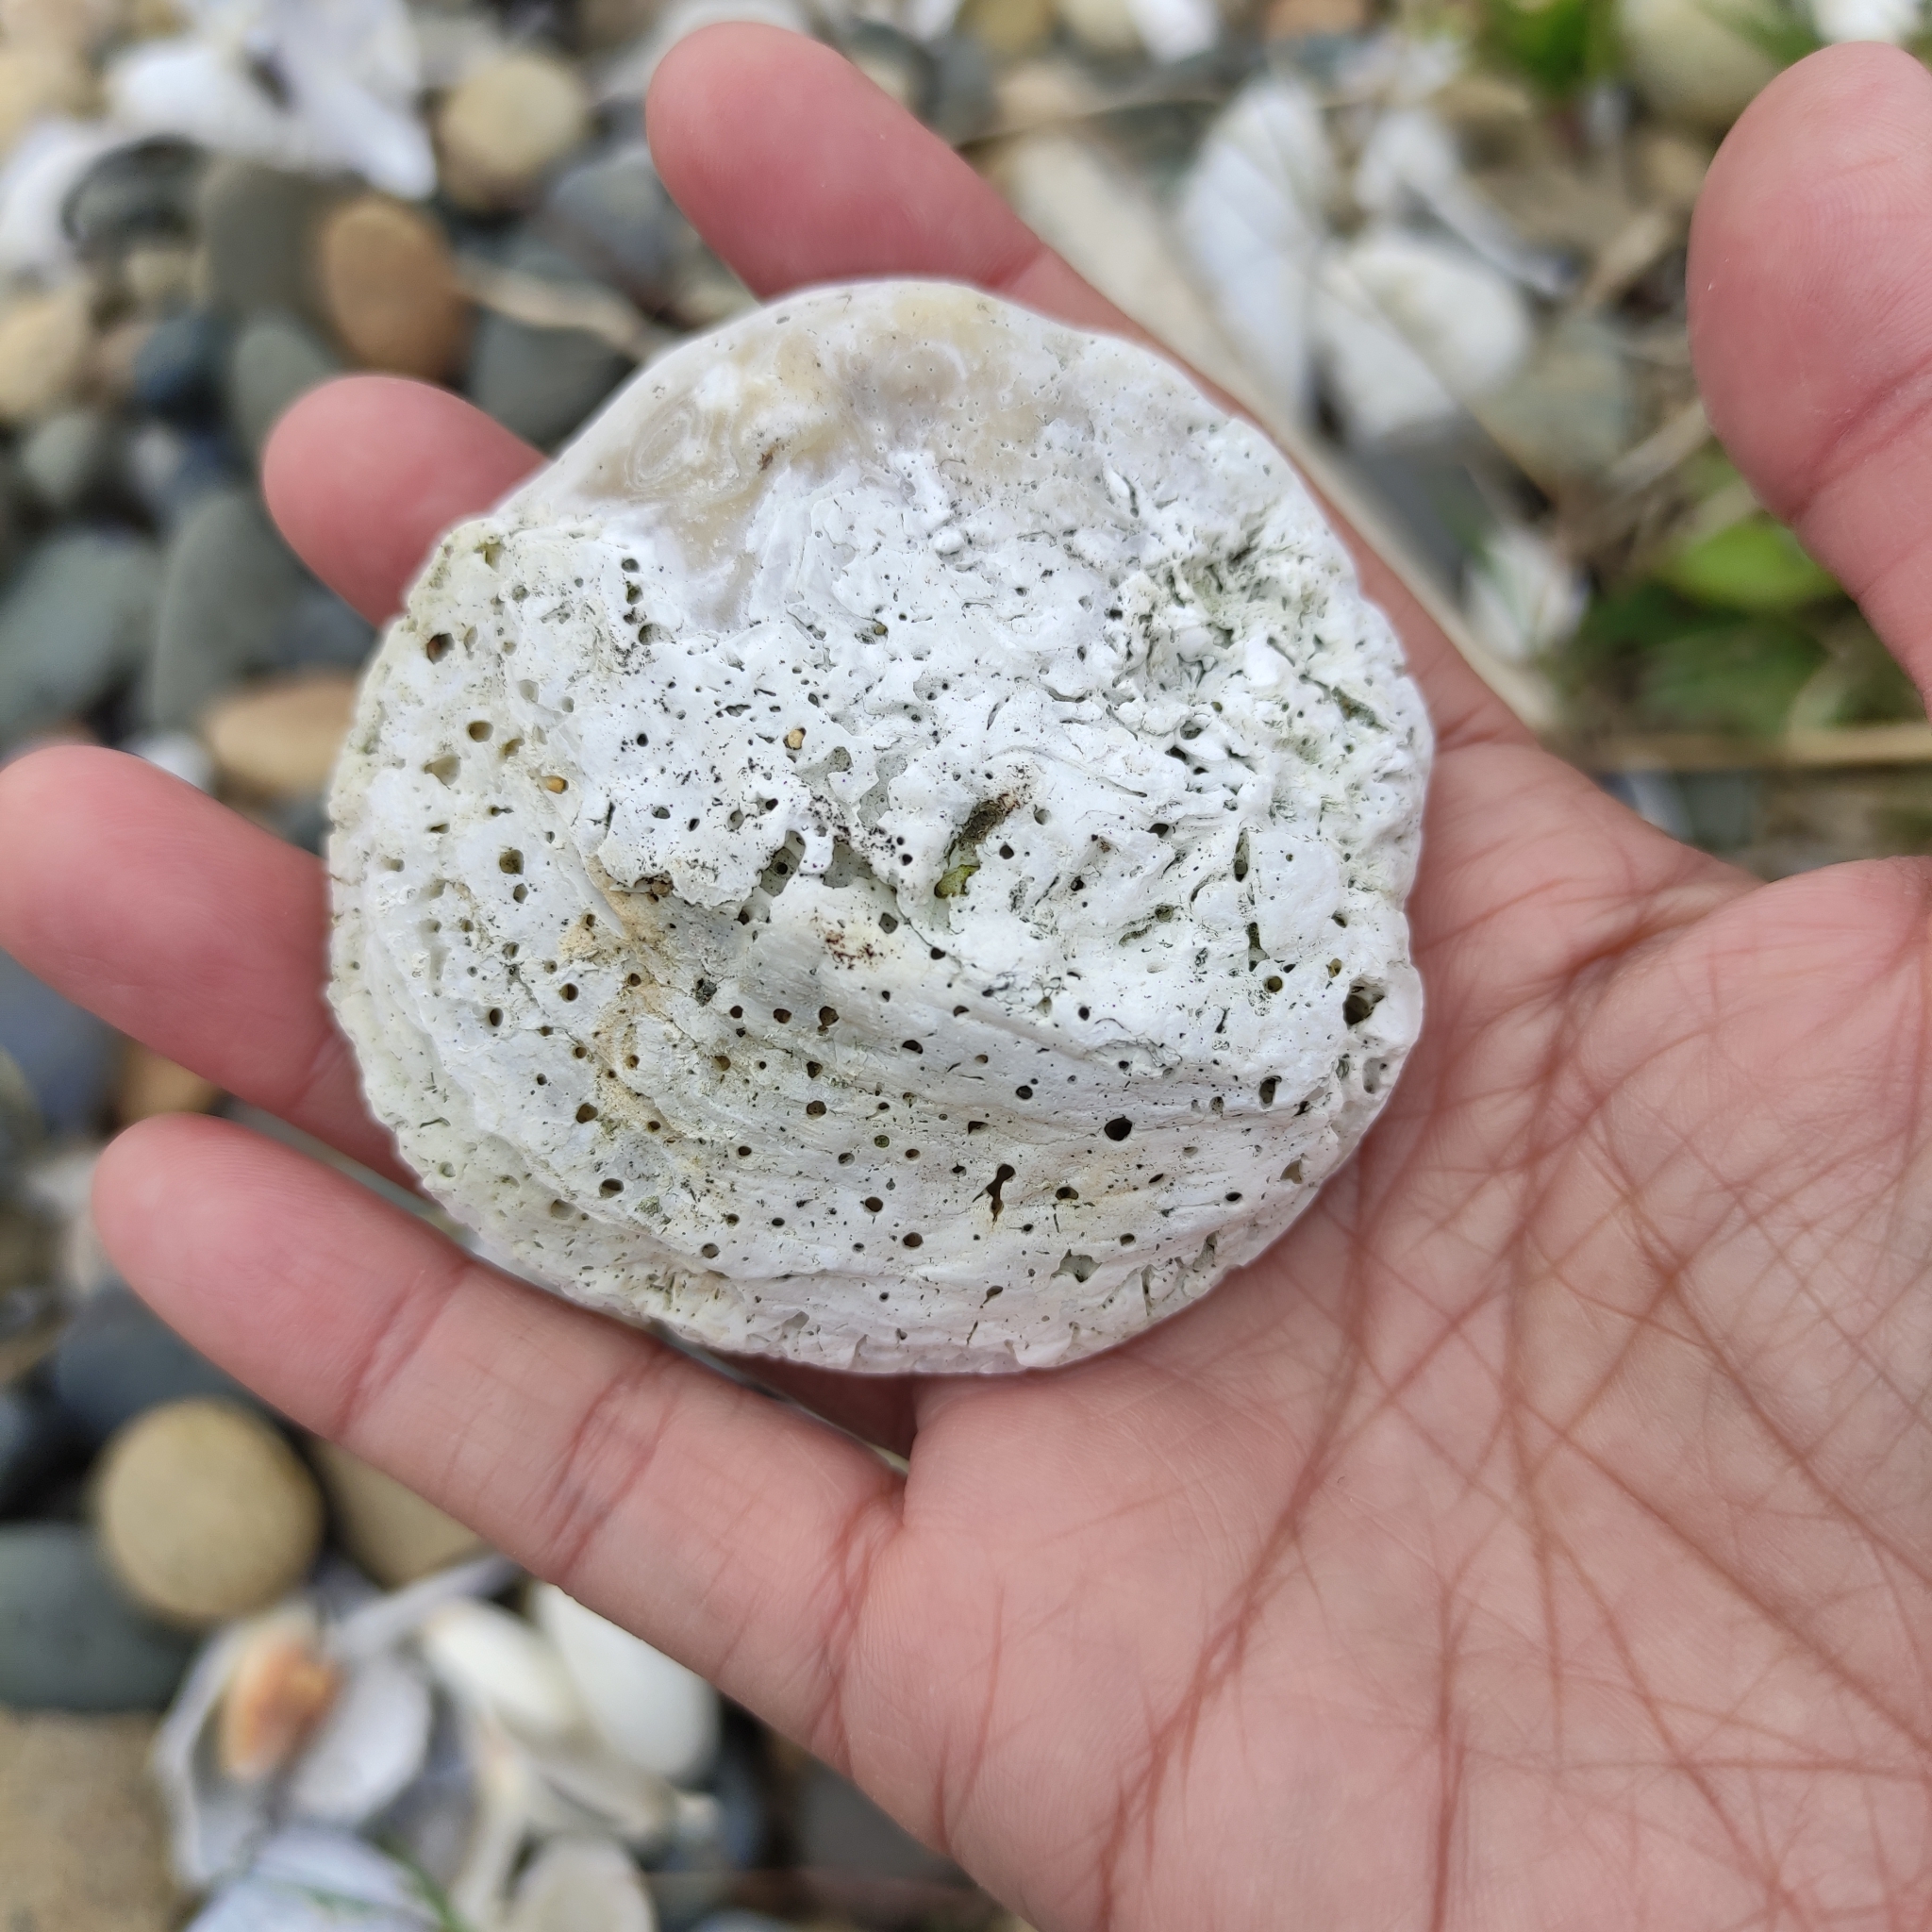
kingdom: Animalia
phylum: Mollusca
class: Bivalvia
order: Ostreida
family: Ostreidae
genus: Ostrea
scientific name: Ostrea chilensis
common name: Chilean oyster
